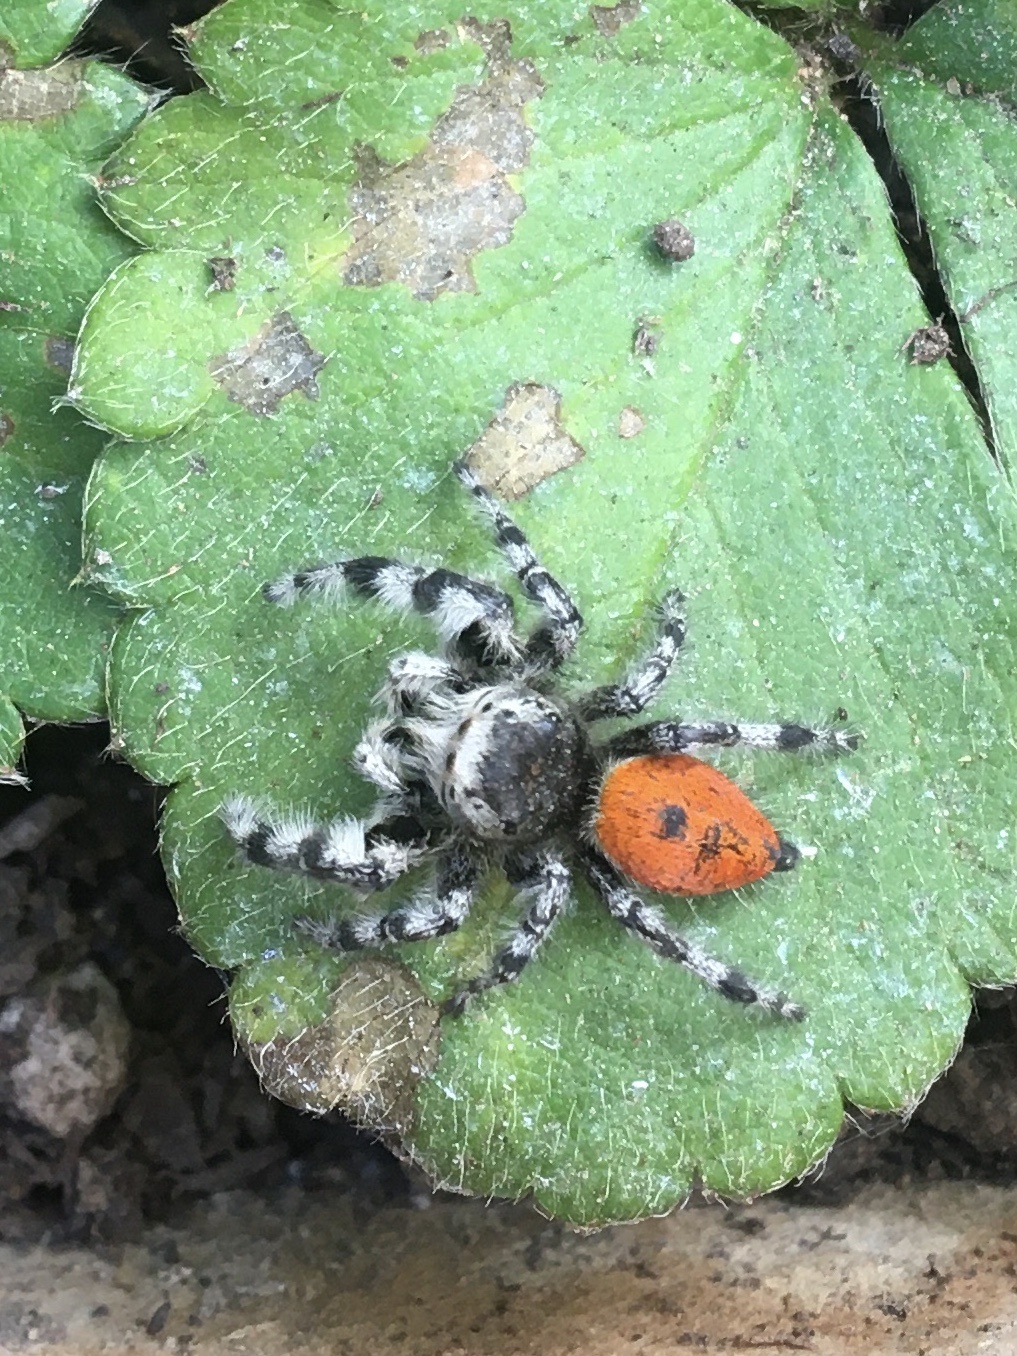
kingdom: Animalia
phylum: Arthropoda
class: Arachnida
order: Araneae
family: Salticidae
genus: Phidippus
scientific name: Phidippus adumbratus
